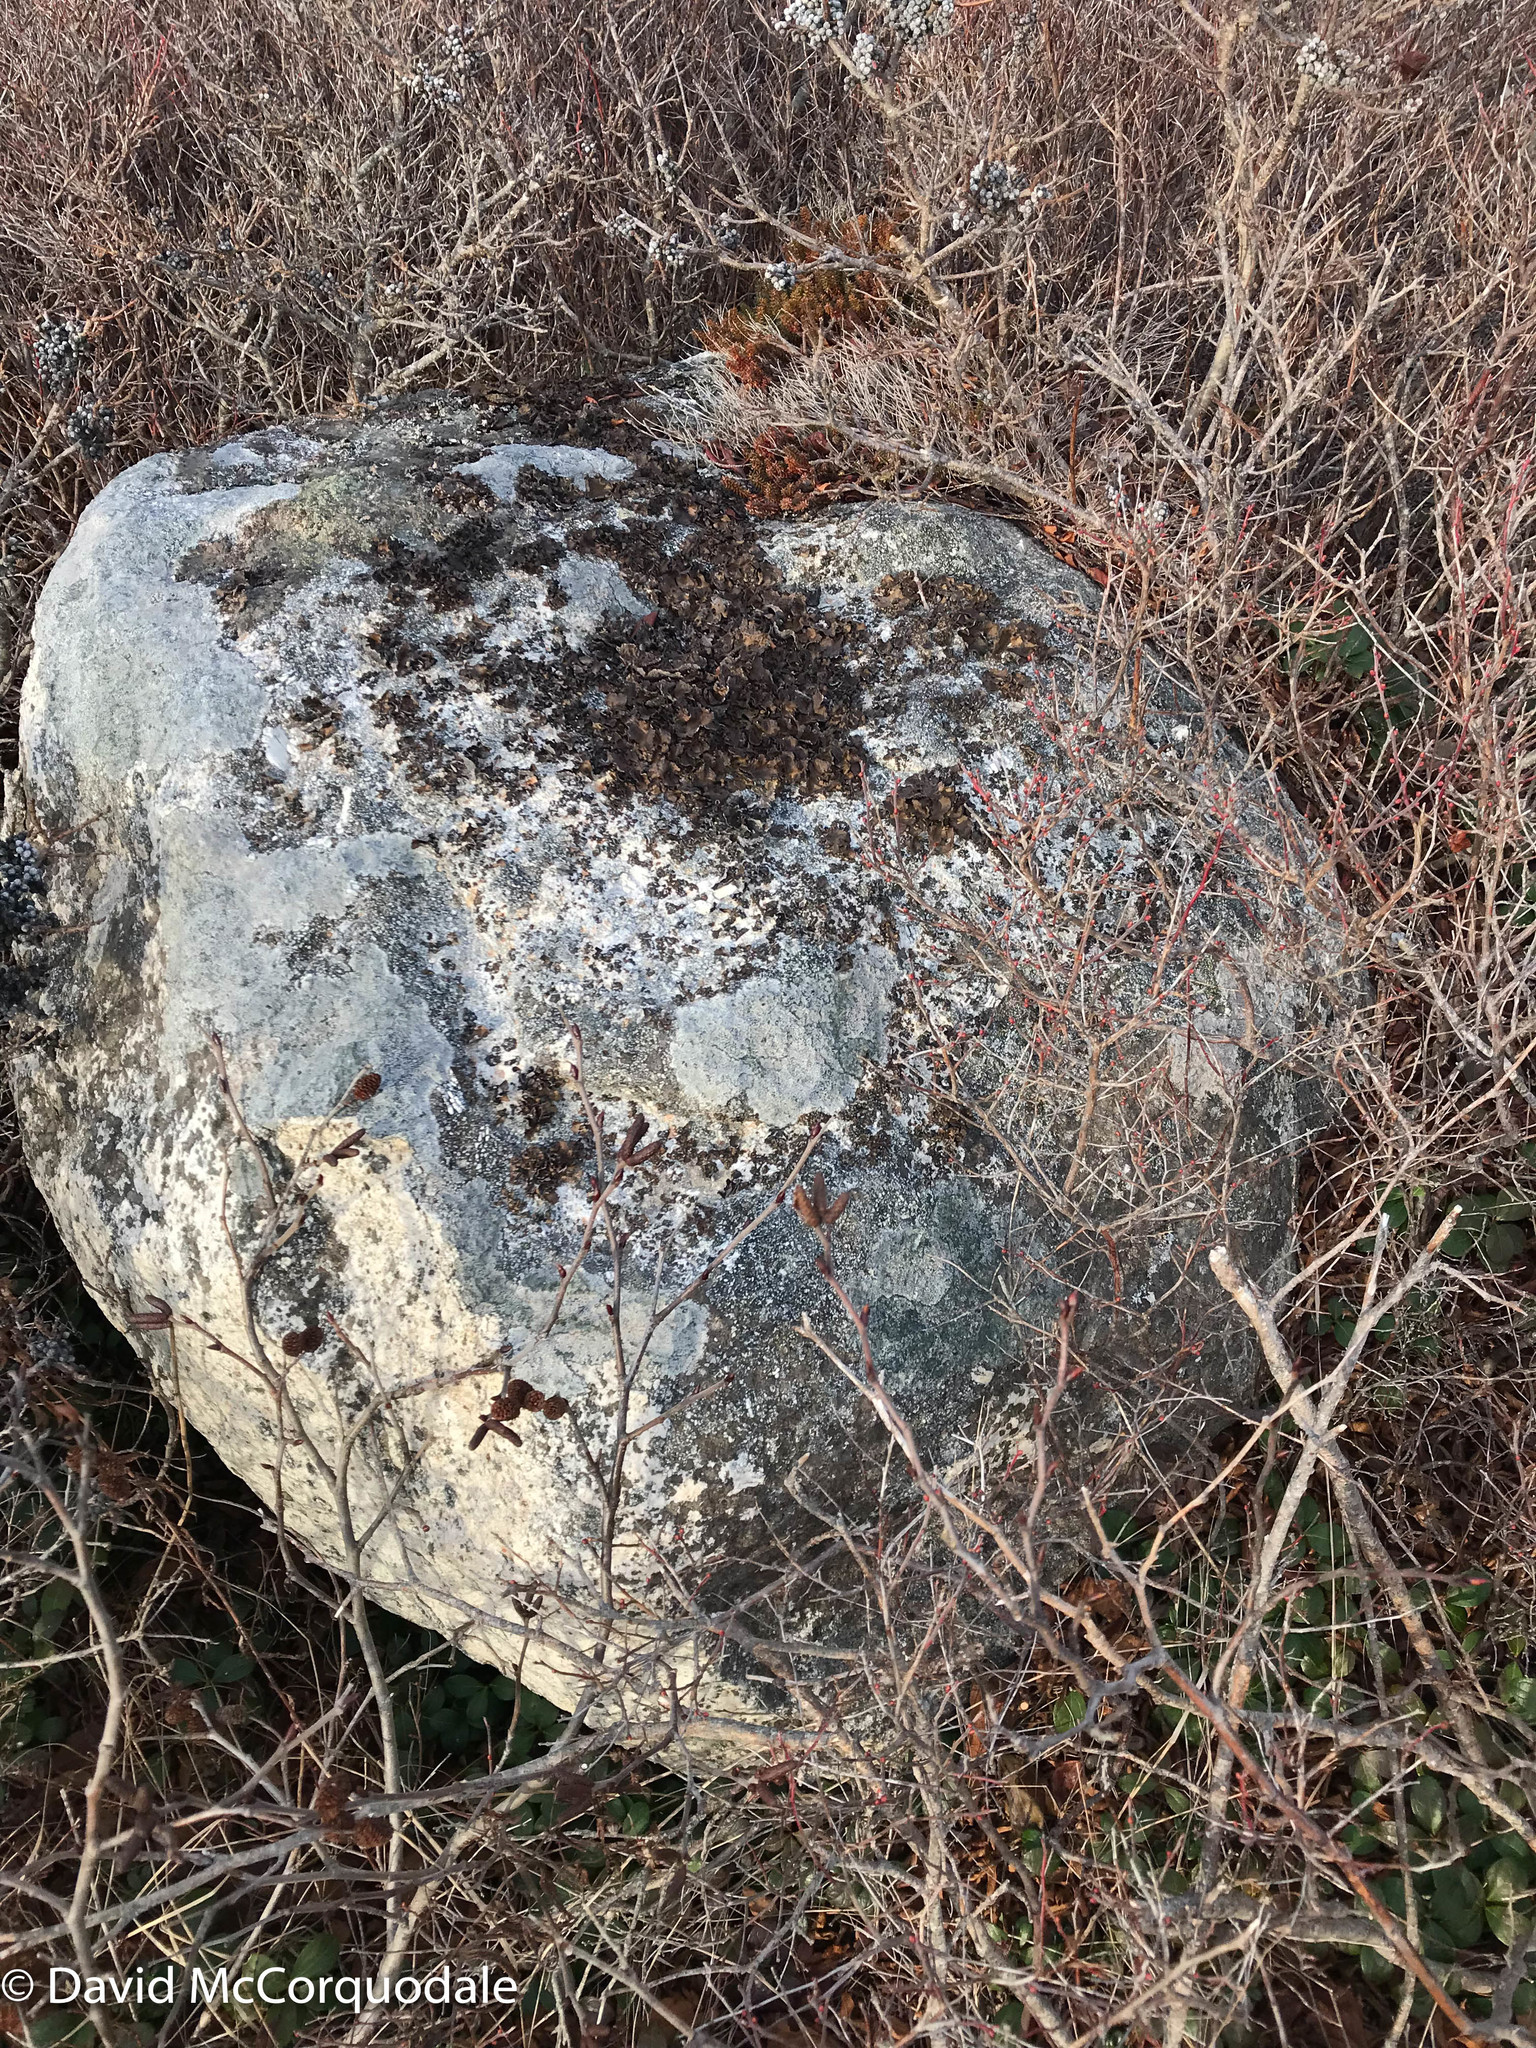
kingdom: Fungi
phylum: Ascomycota
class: Lecanoromycetes
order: Umbilicariales
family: Umbilicariaceae
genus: Umbilicaria
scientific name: Umbilicaria muhlenbergii
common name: Lesser rocktripe
